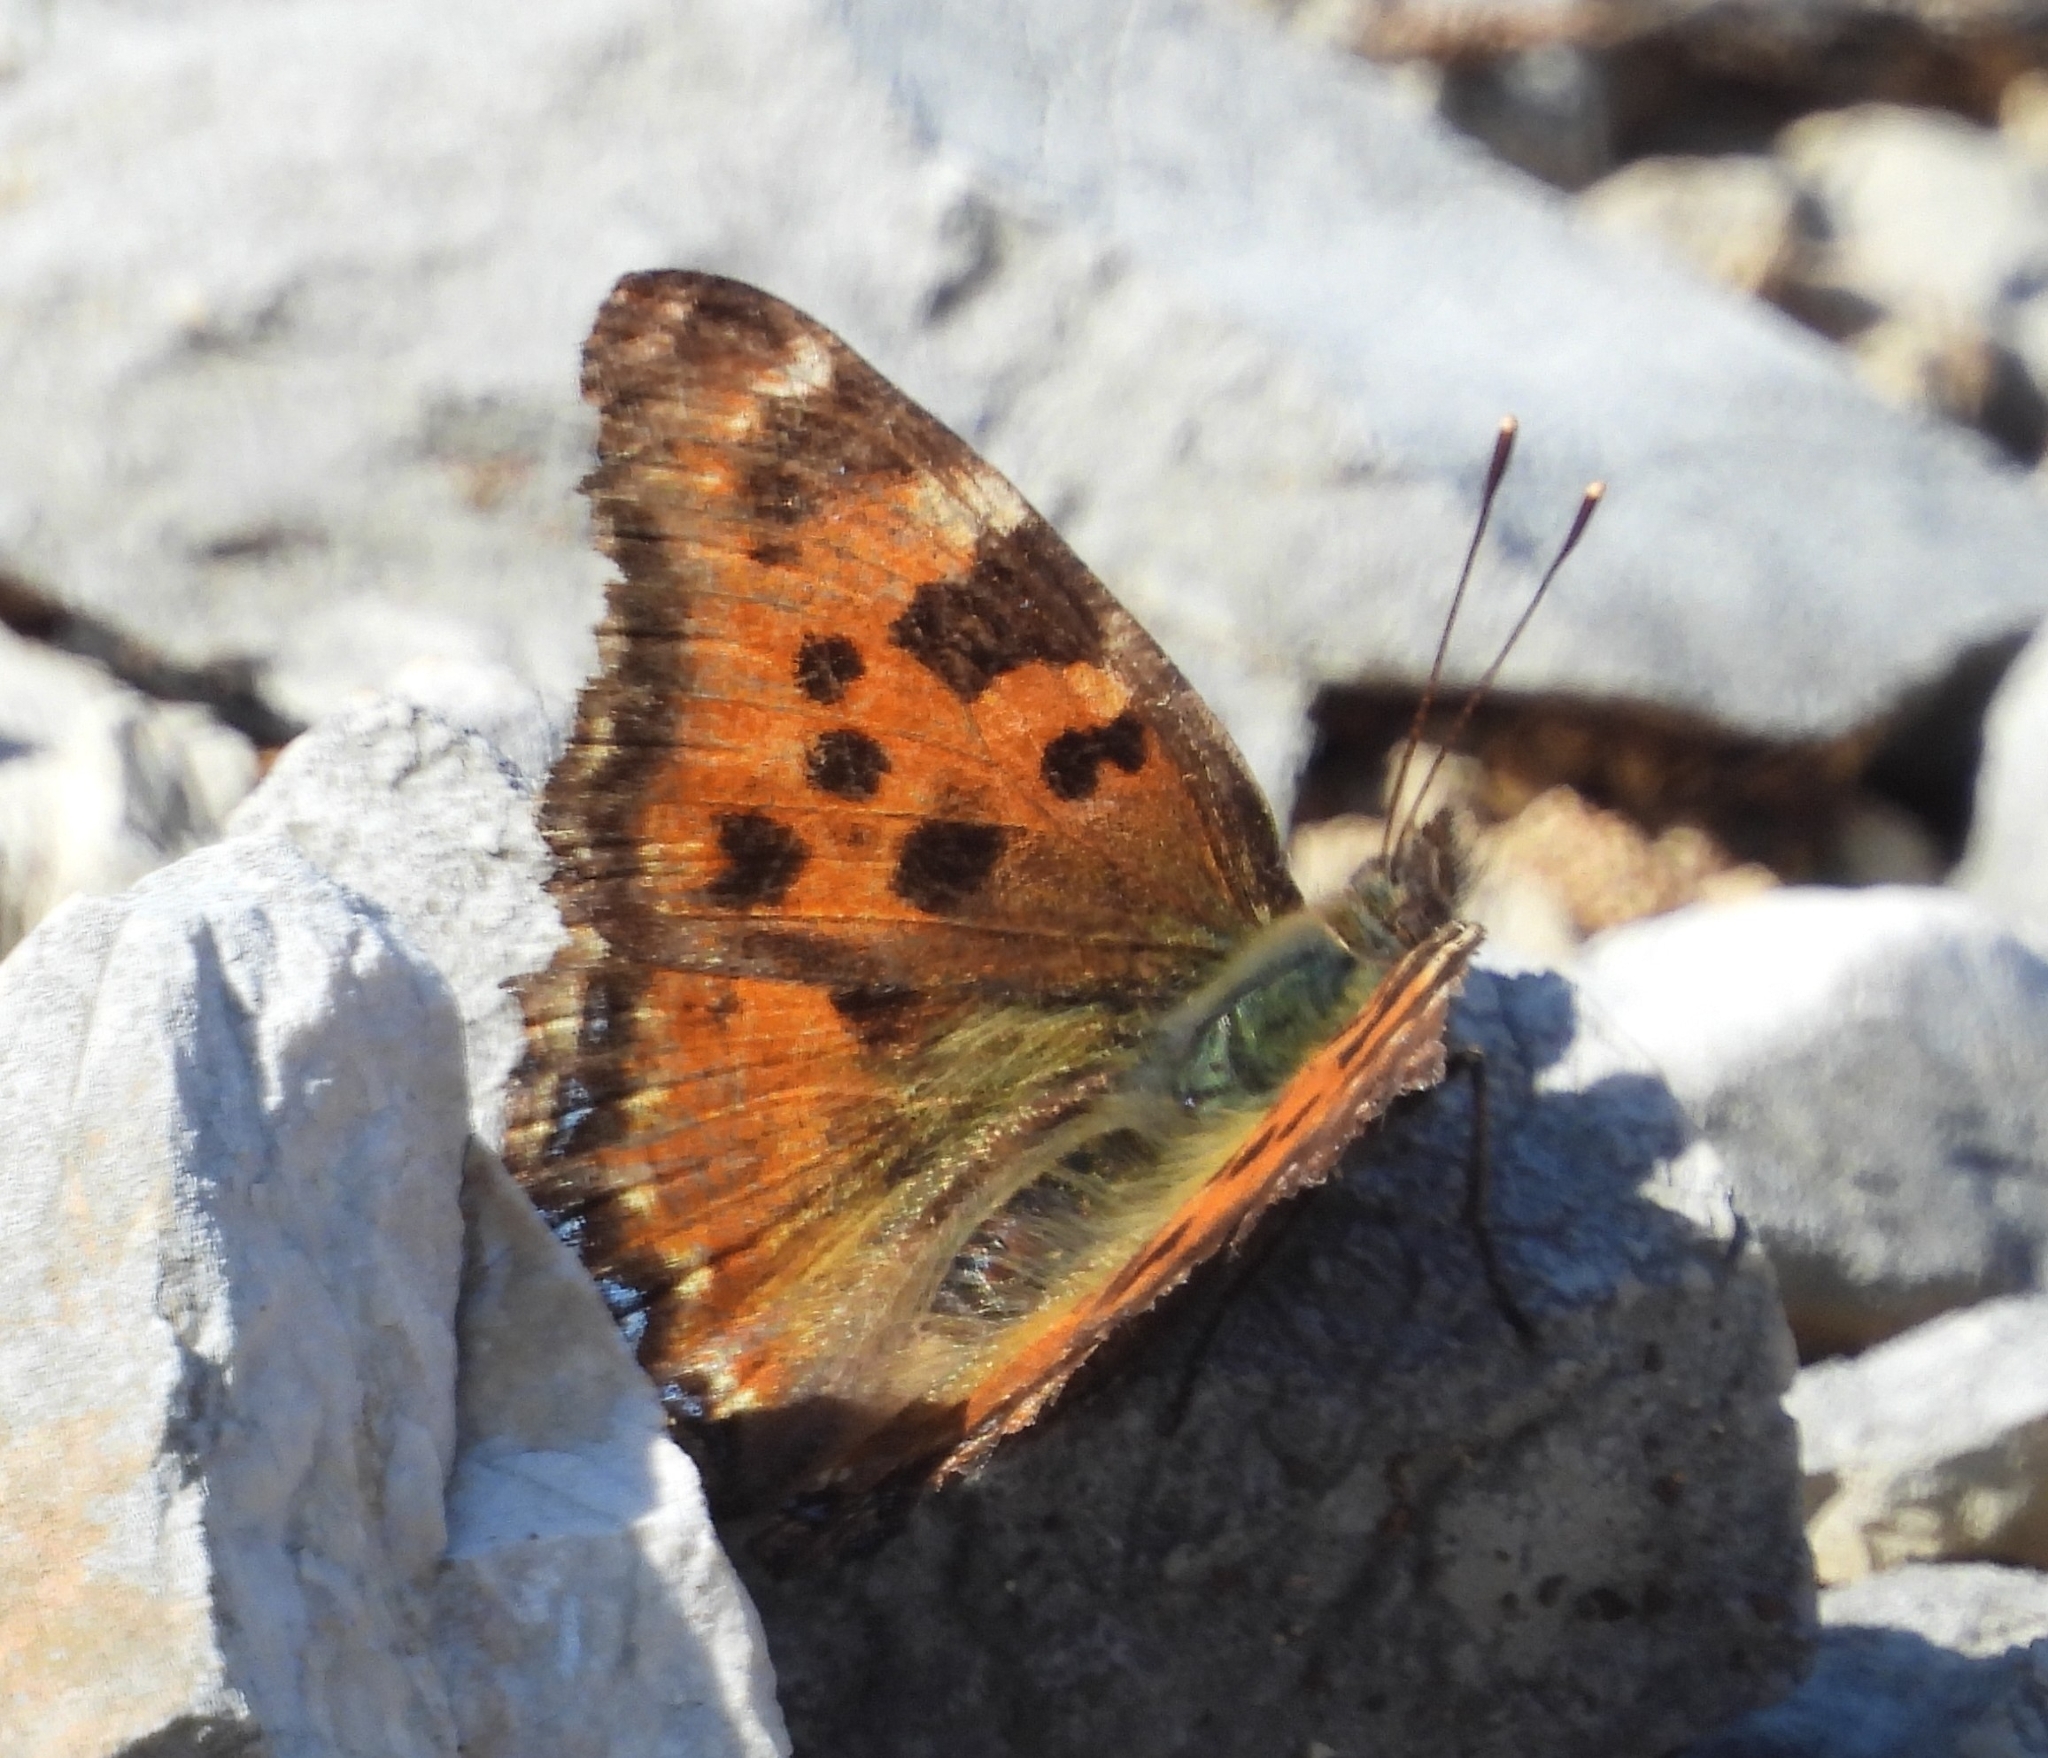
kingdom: Animalia
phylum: Arthropoda
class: Insecta
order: Lepidoptera
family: Nymphalidae
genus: Nymphalis
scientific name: Nymphalis polychloros
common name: Large tortoiseshell
